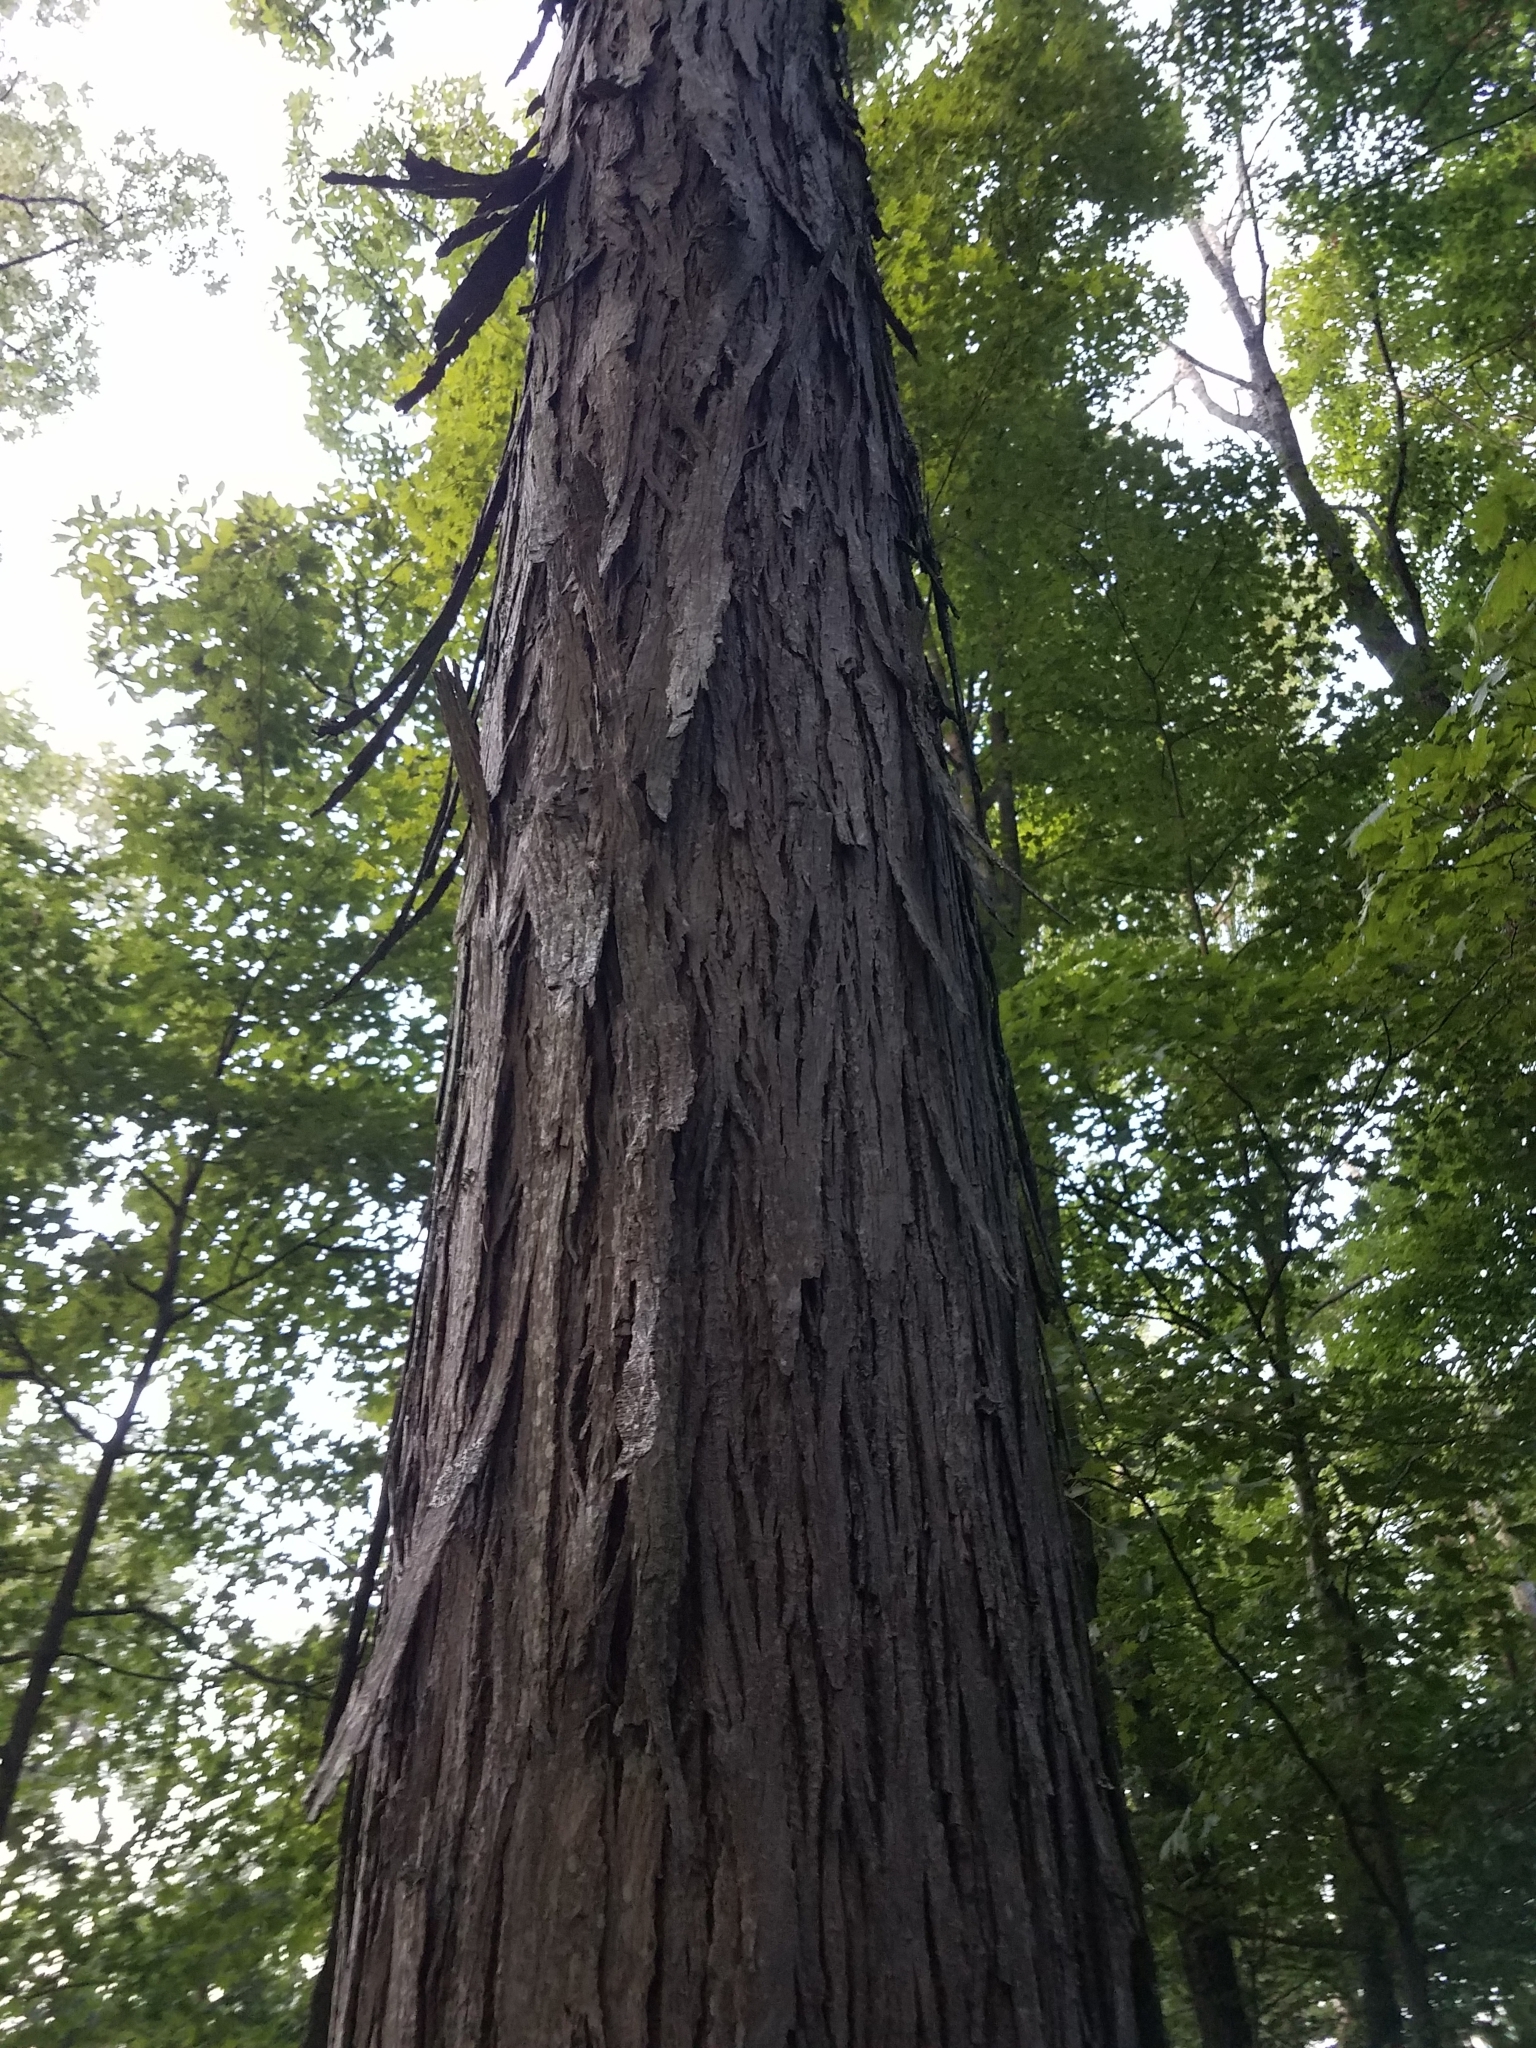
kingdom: Plantae
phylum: Tracheophyta
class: Magnoliopsida
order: Fagales
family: Juglandaceae
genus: Carya
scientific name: Carya ovata
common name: Shagbark hickory
